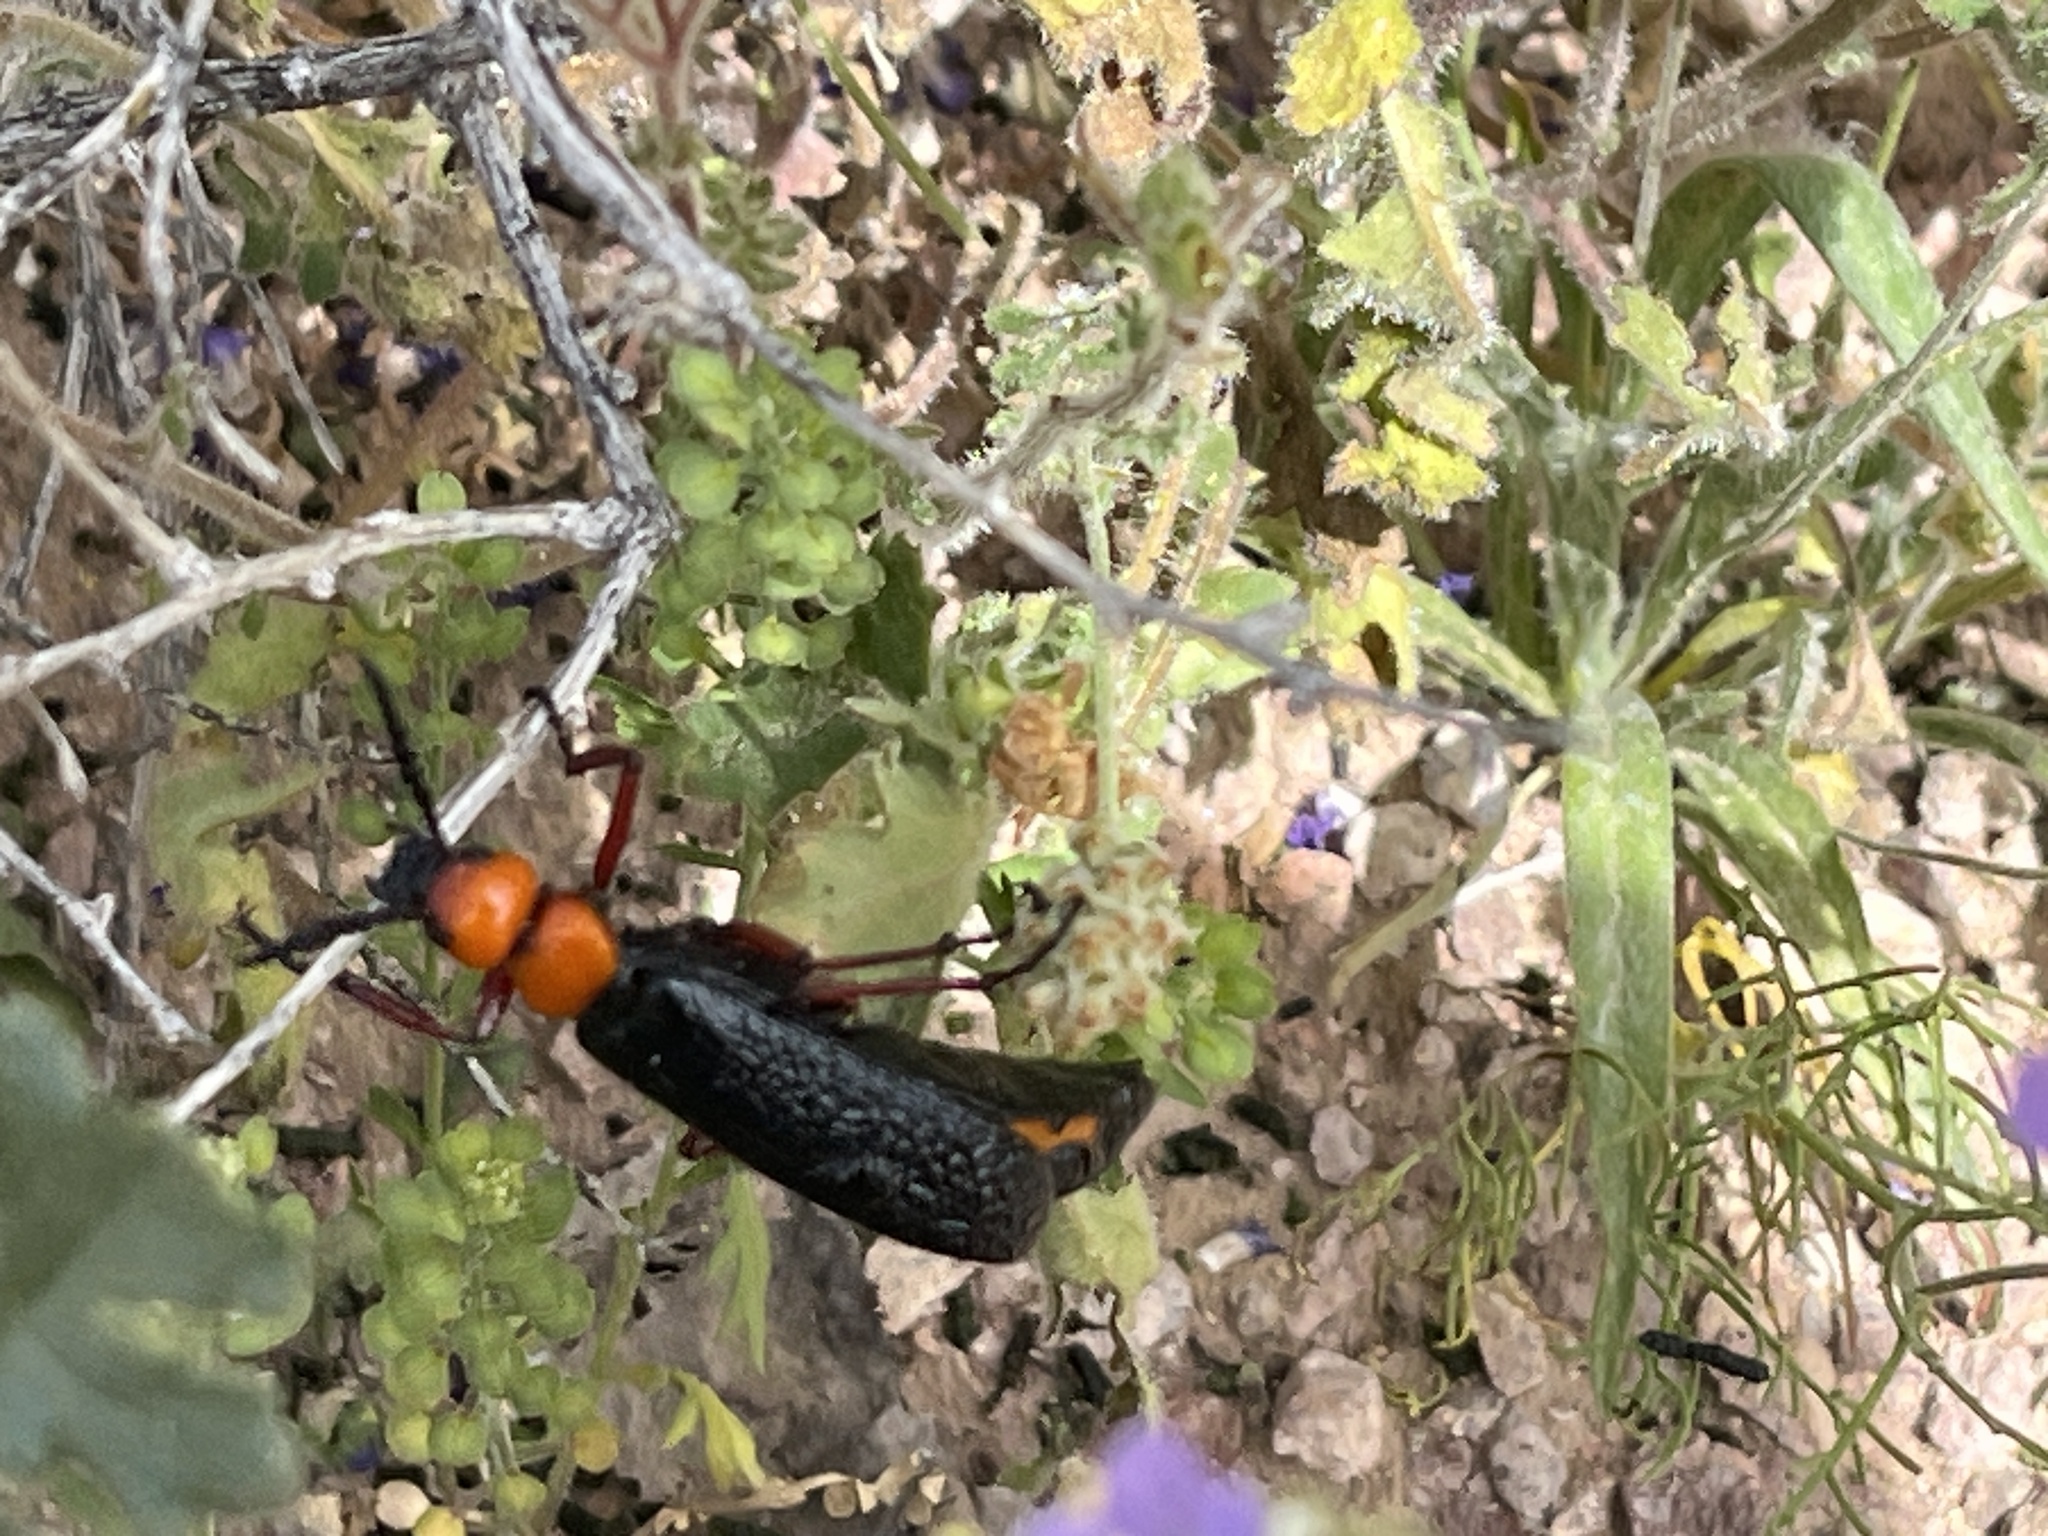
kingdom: Animalia
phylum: Arthropoda
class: Insecta
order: Coleoptera
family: Meloidae
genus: Lytta
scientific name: Lytta magister
